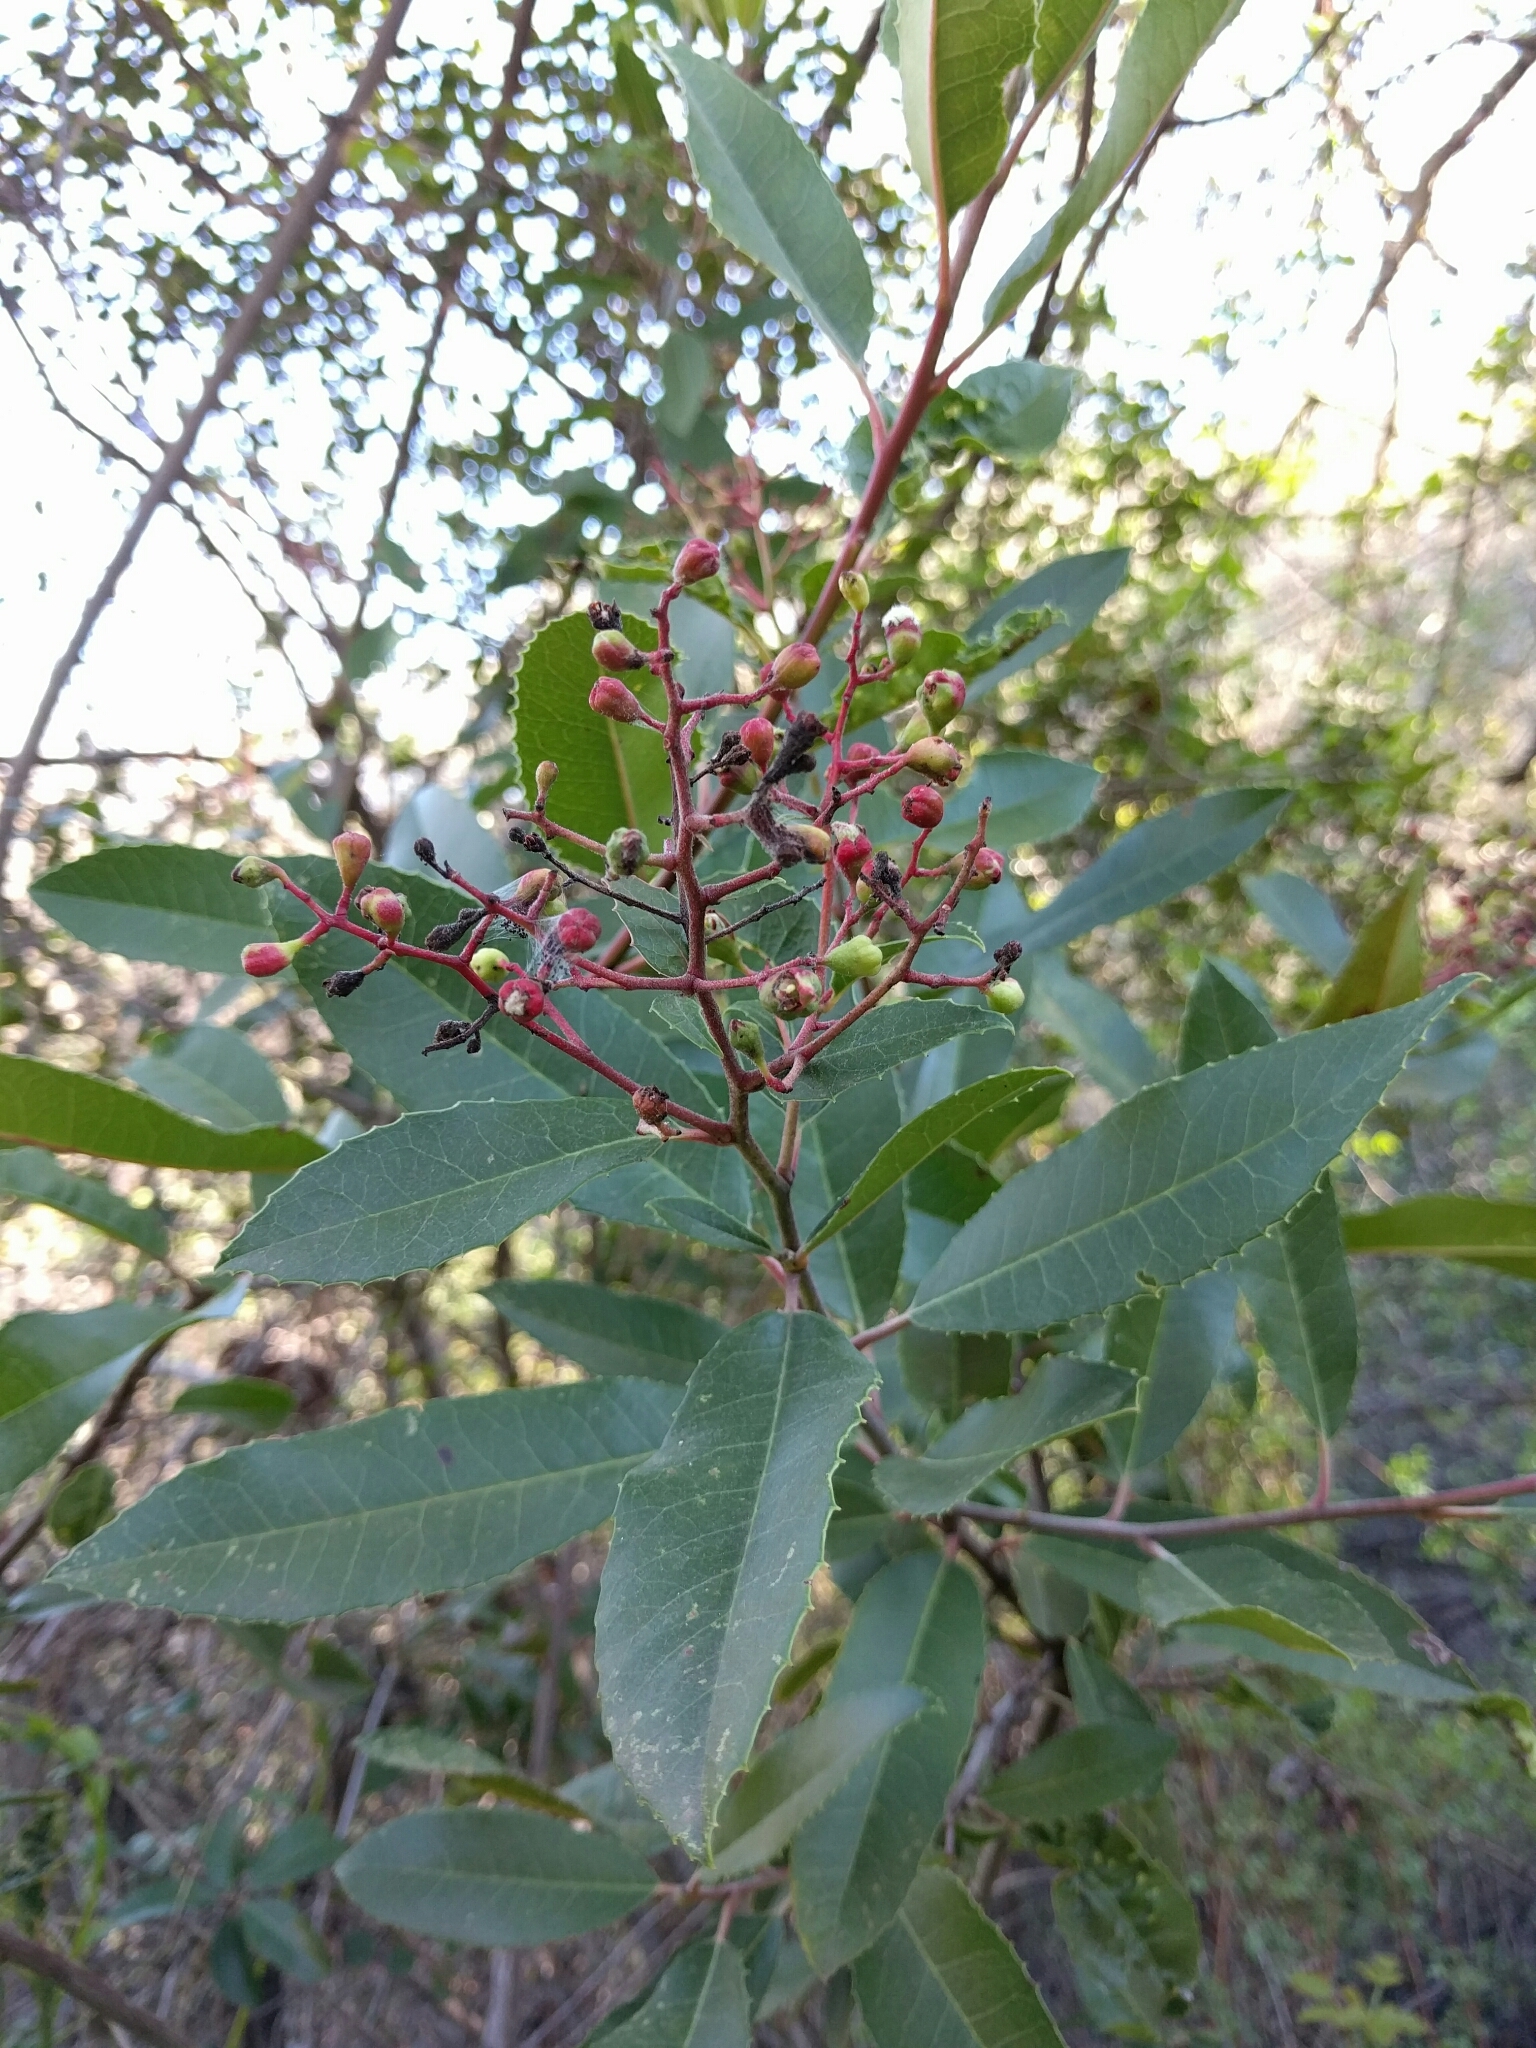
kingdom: Plantae
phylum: Tracheophyta
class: Magnoliopsida
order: Rosales
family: Rosaceae
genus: Heteromeles
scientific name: Heteromeles arbutifolia
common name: California-holly
